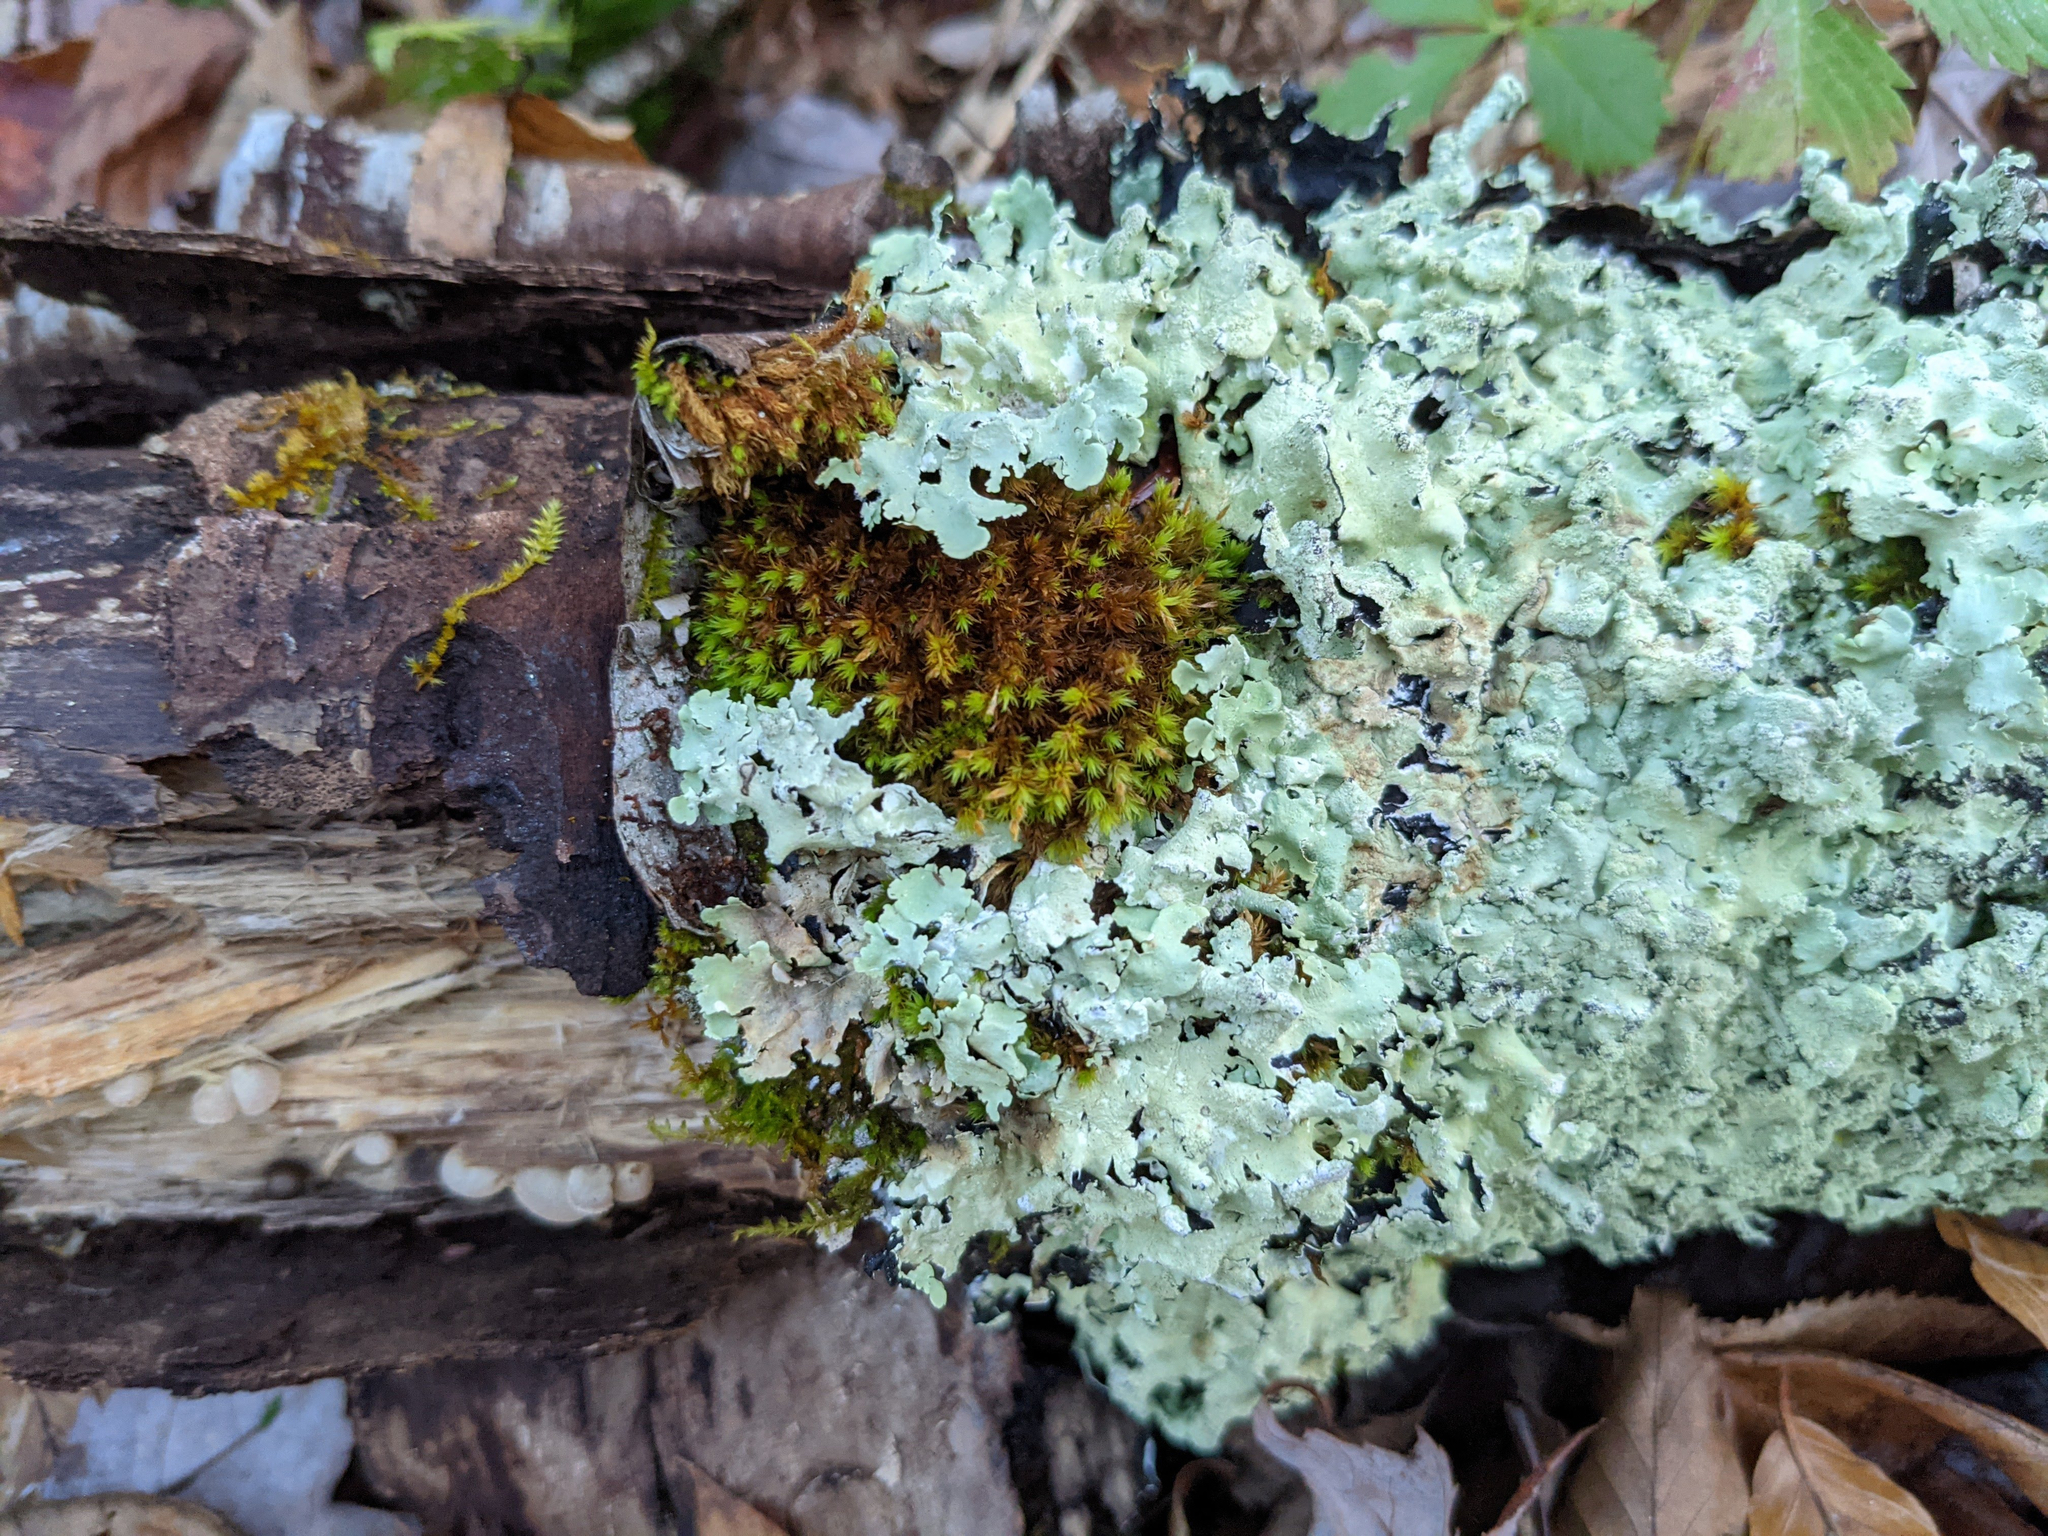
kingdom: Plantae
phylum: Bryophyta
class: Bryopsida
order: Orthotrichales
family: Orthotrichaceae
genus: Ulota
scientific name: Ulota crispa
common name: Crisped pincushion moss
